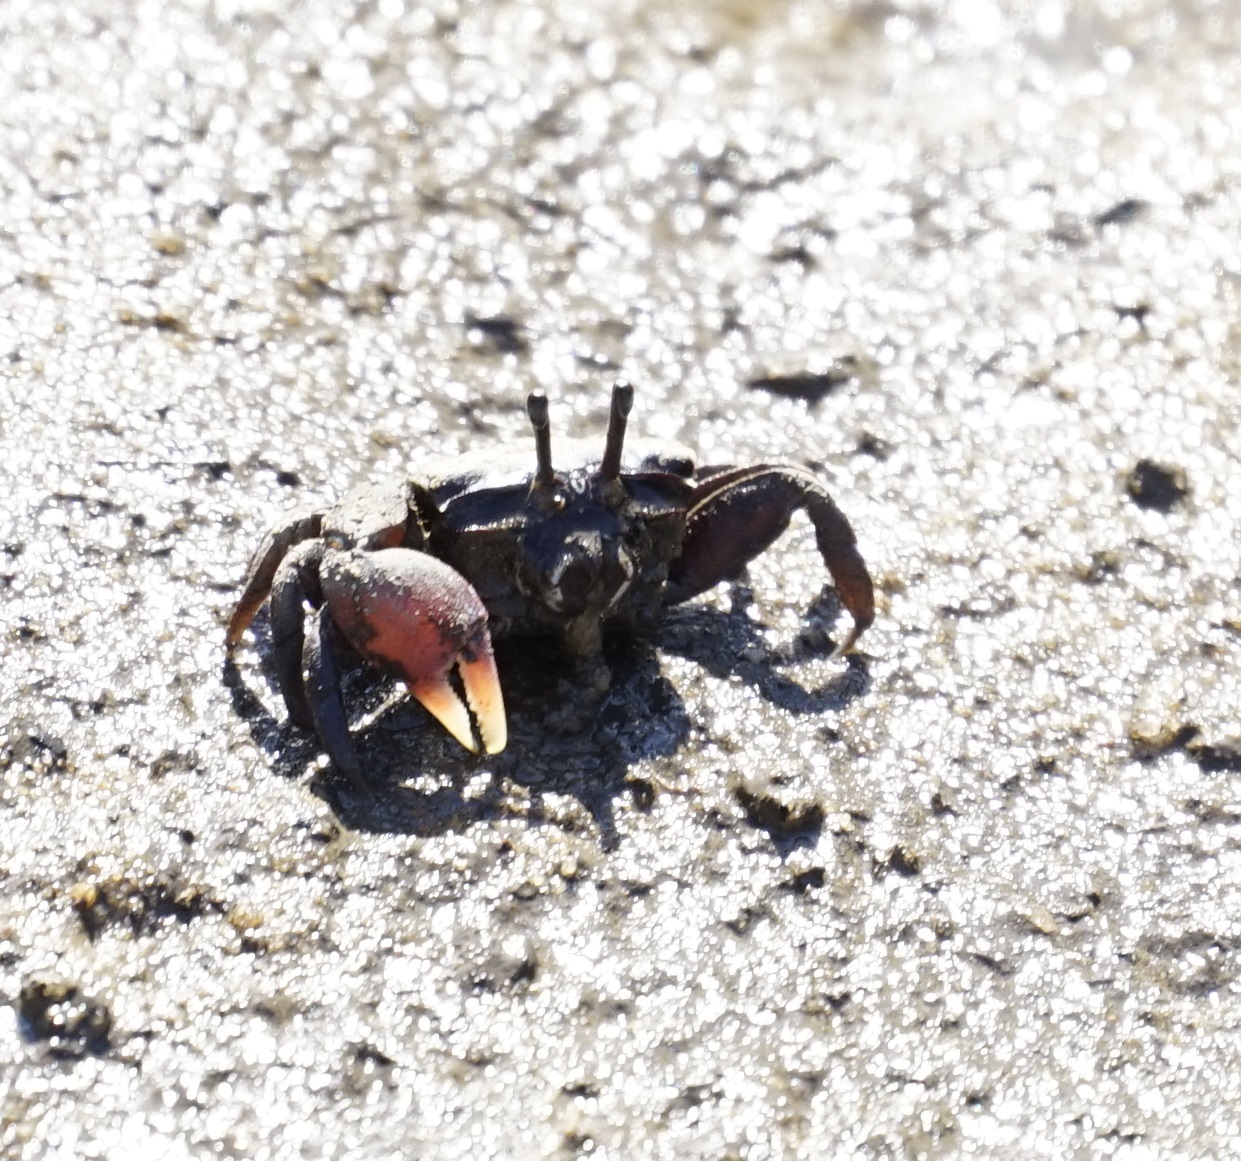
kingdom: Animalia
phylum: Arthropoda
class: Malacostraca
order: Decapoda
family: Heloeciidae
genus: Heloecius
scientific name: Heloecius cordiformis
